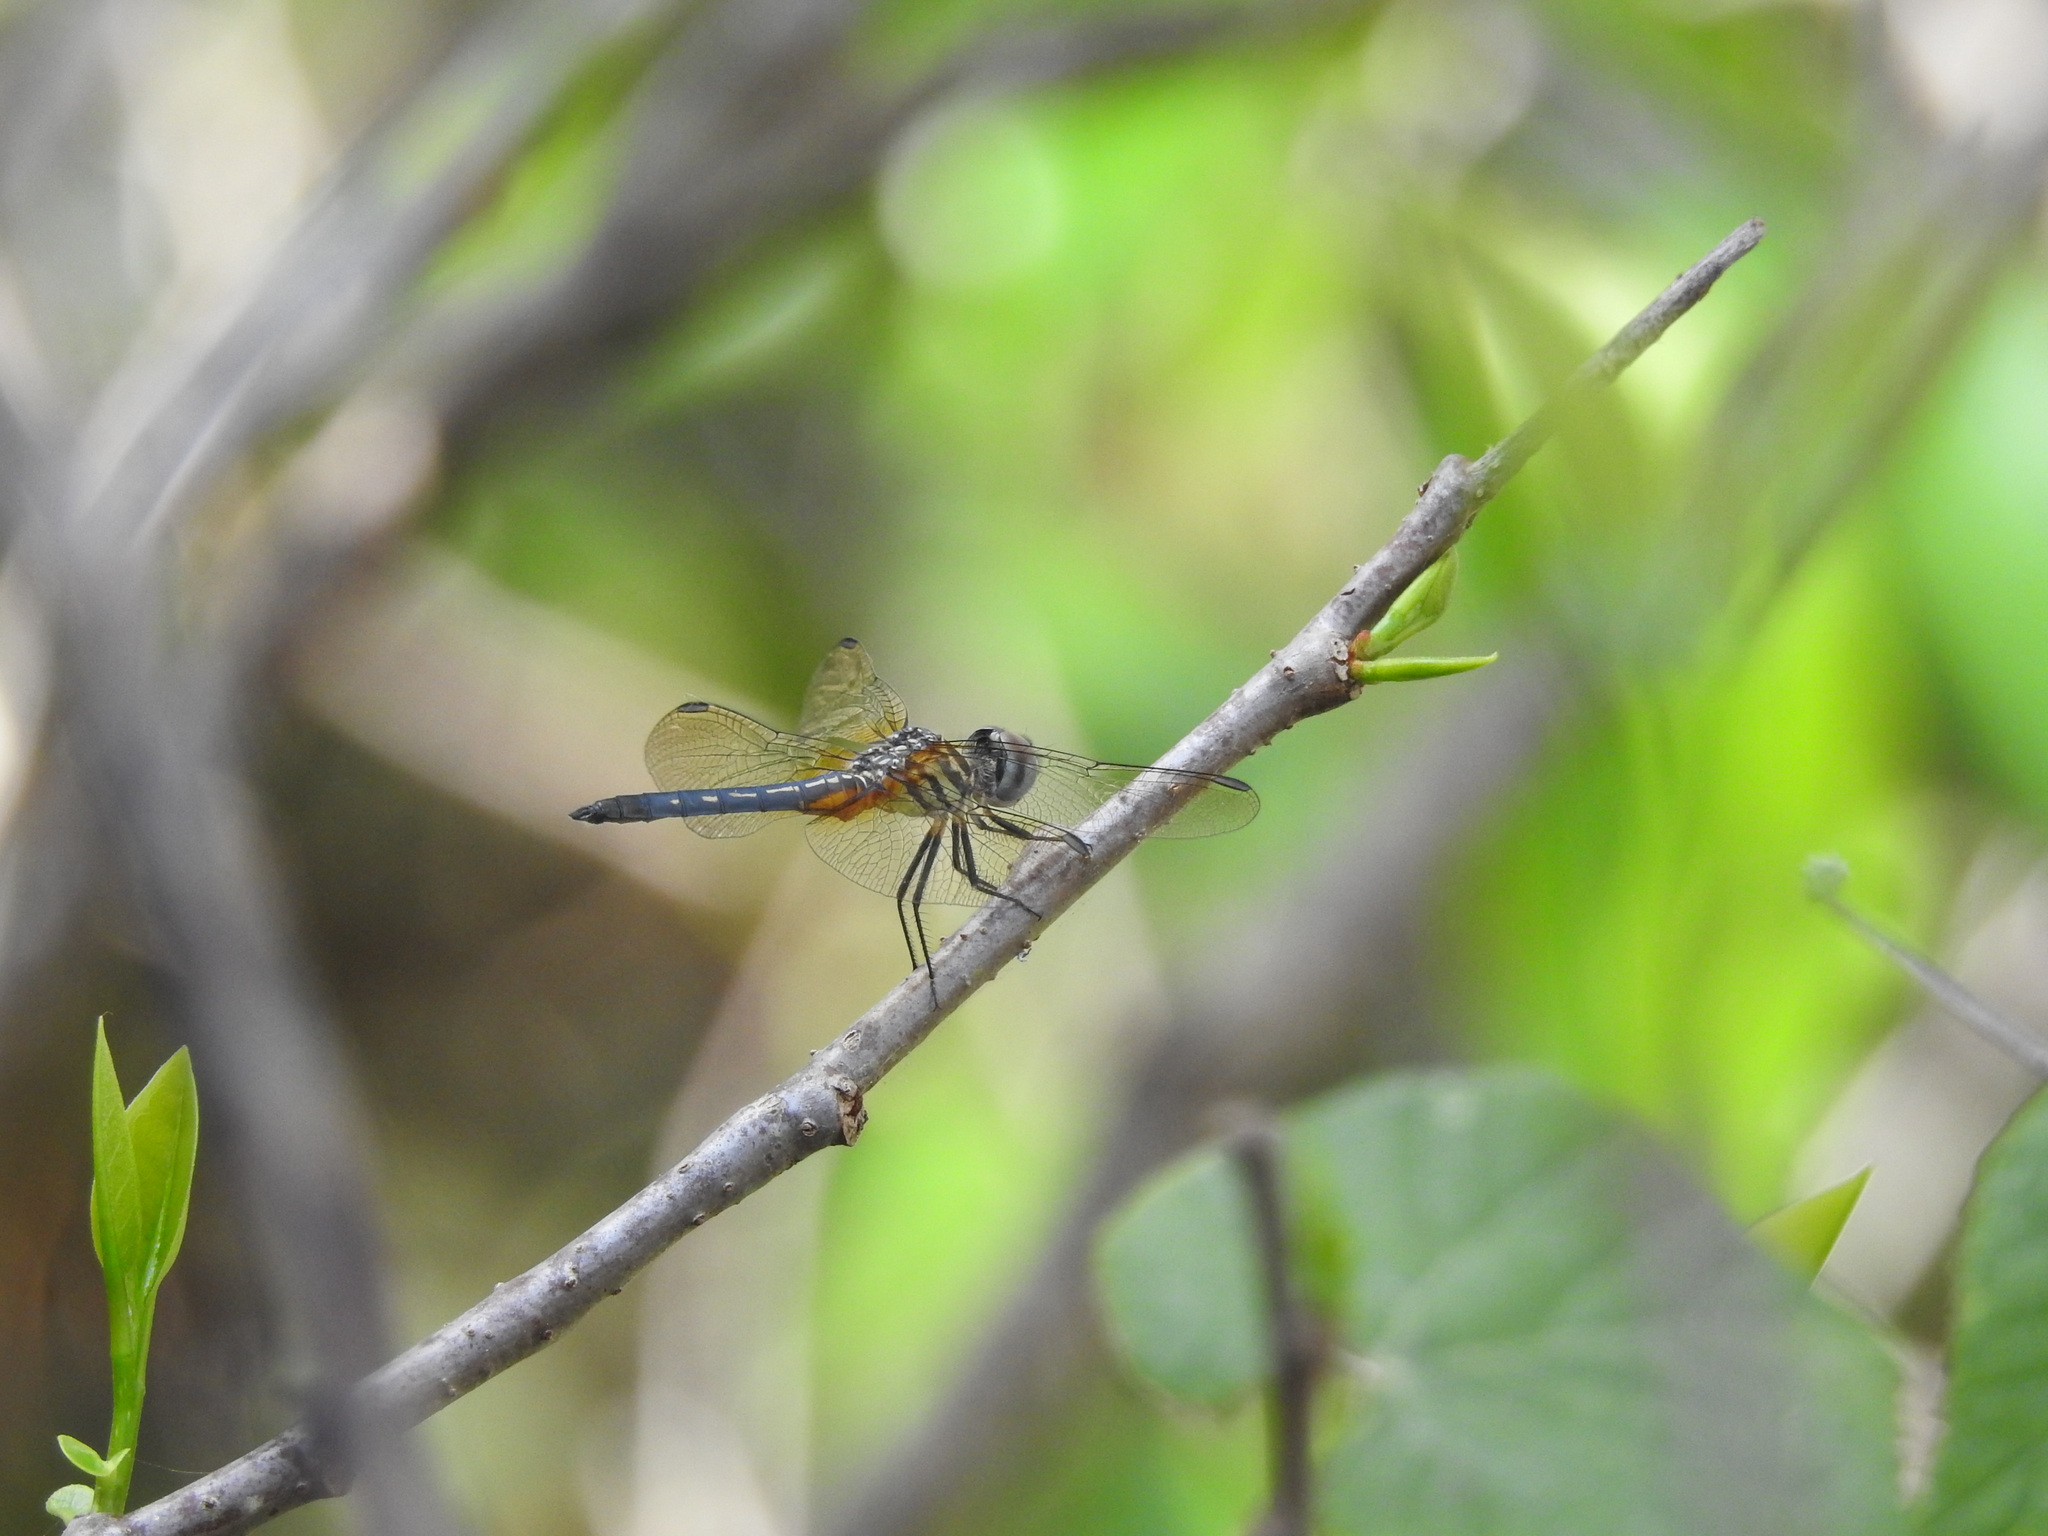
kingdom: Animalia
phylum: Arthropoda
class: Insecta
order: Odonata
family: Libellulidae
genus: Pachydiplax
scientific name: Pachydiplax longipennis
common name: Blue dasher
